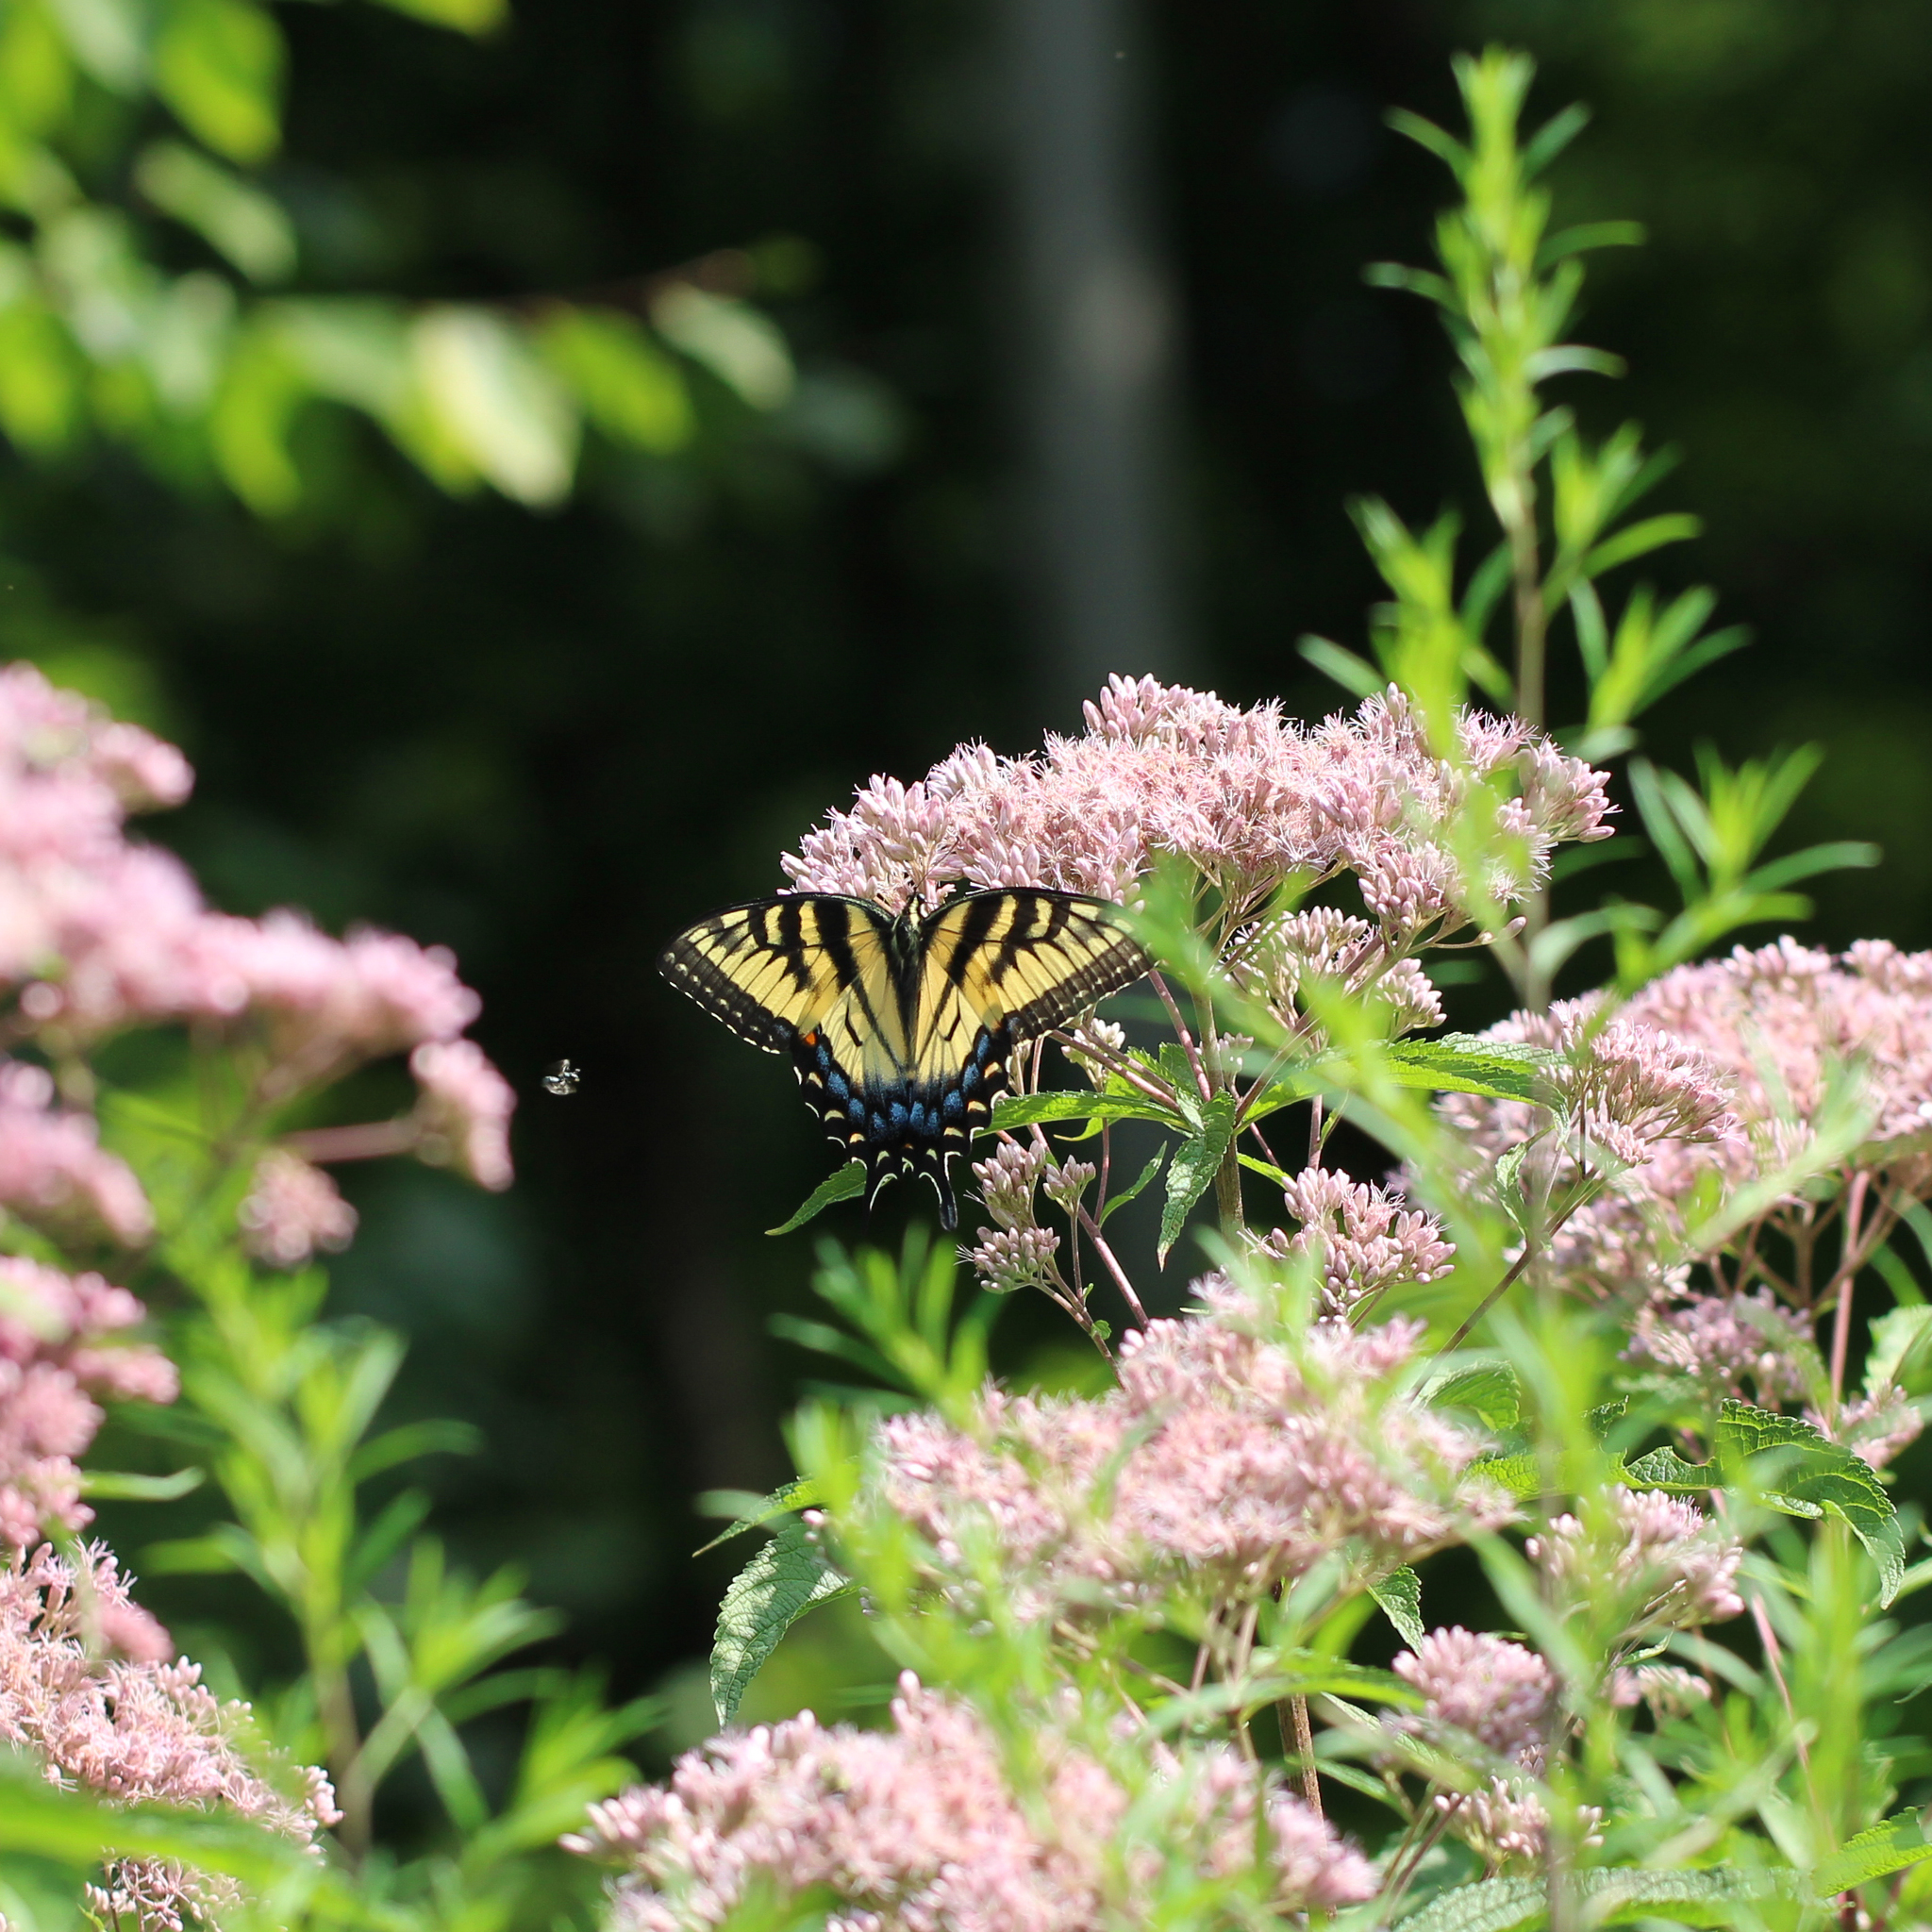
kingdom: Animalia
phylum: Arthropoda
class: Insecta
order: Lepidoptera
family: Papilionidae
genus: Papilio
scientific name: Papilio glaucus
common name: Tiger swallowtail
